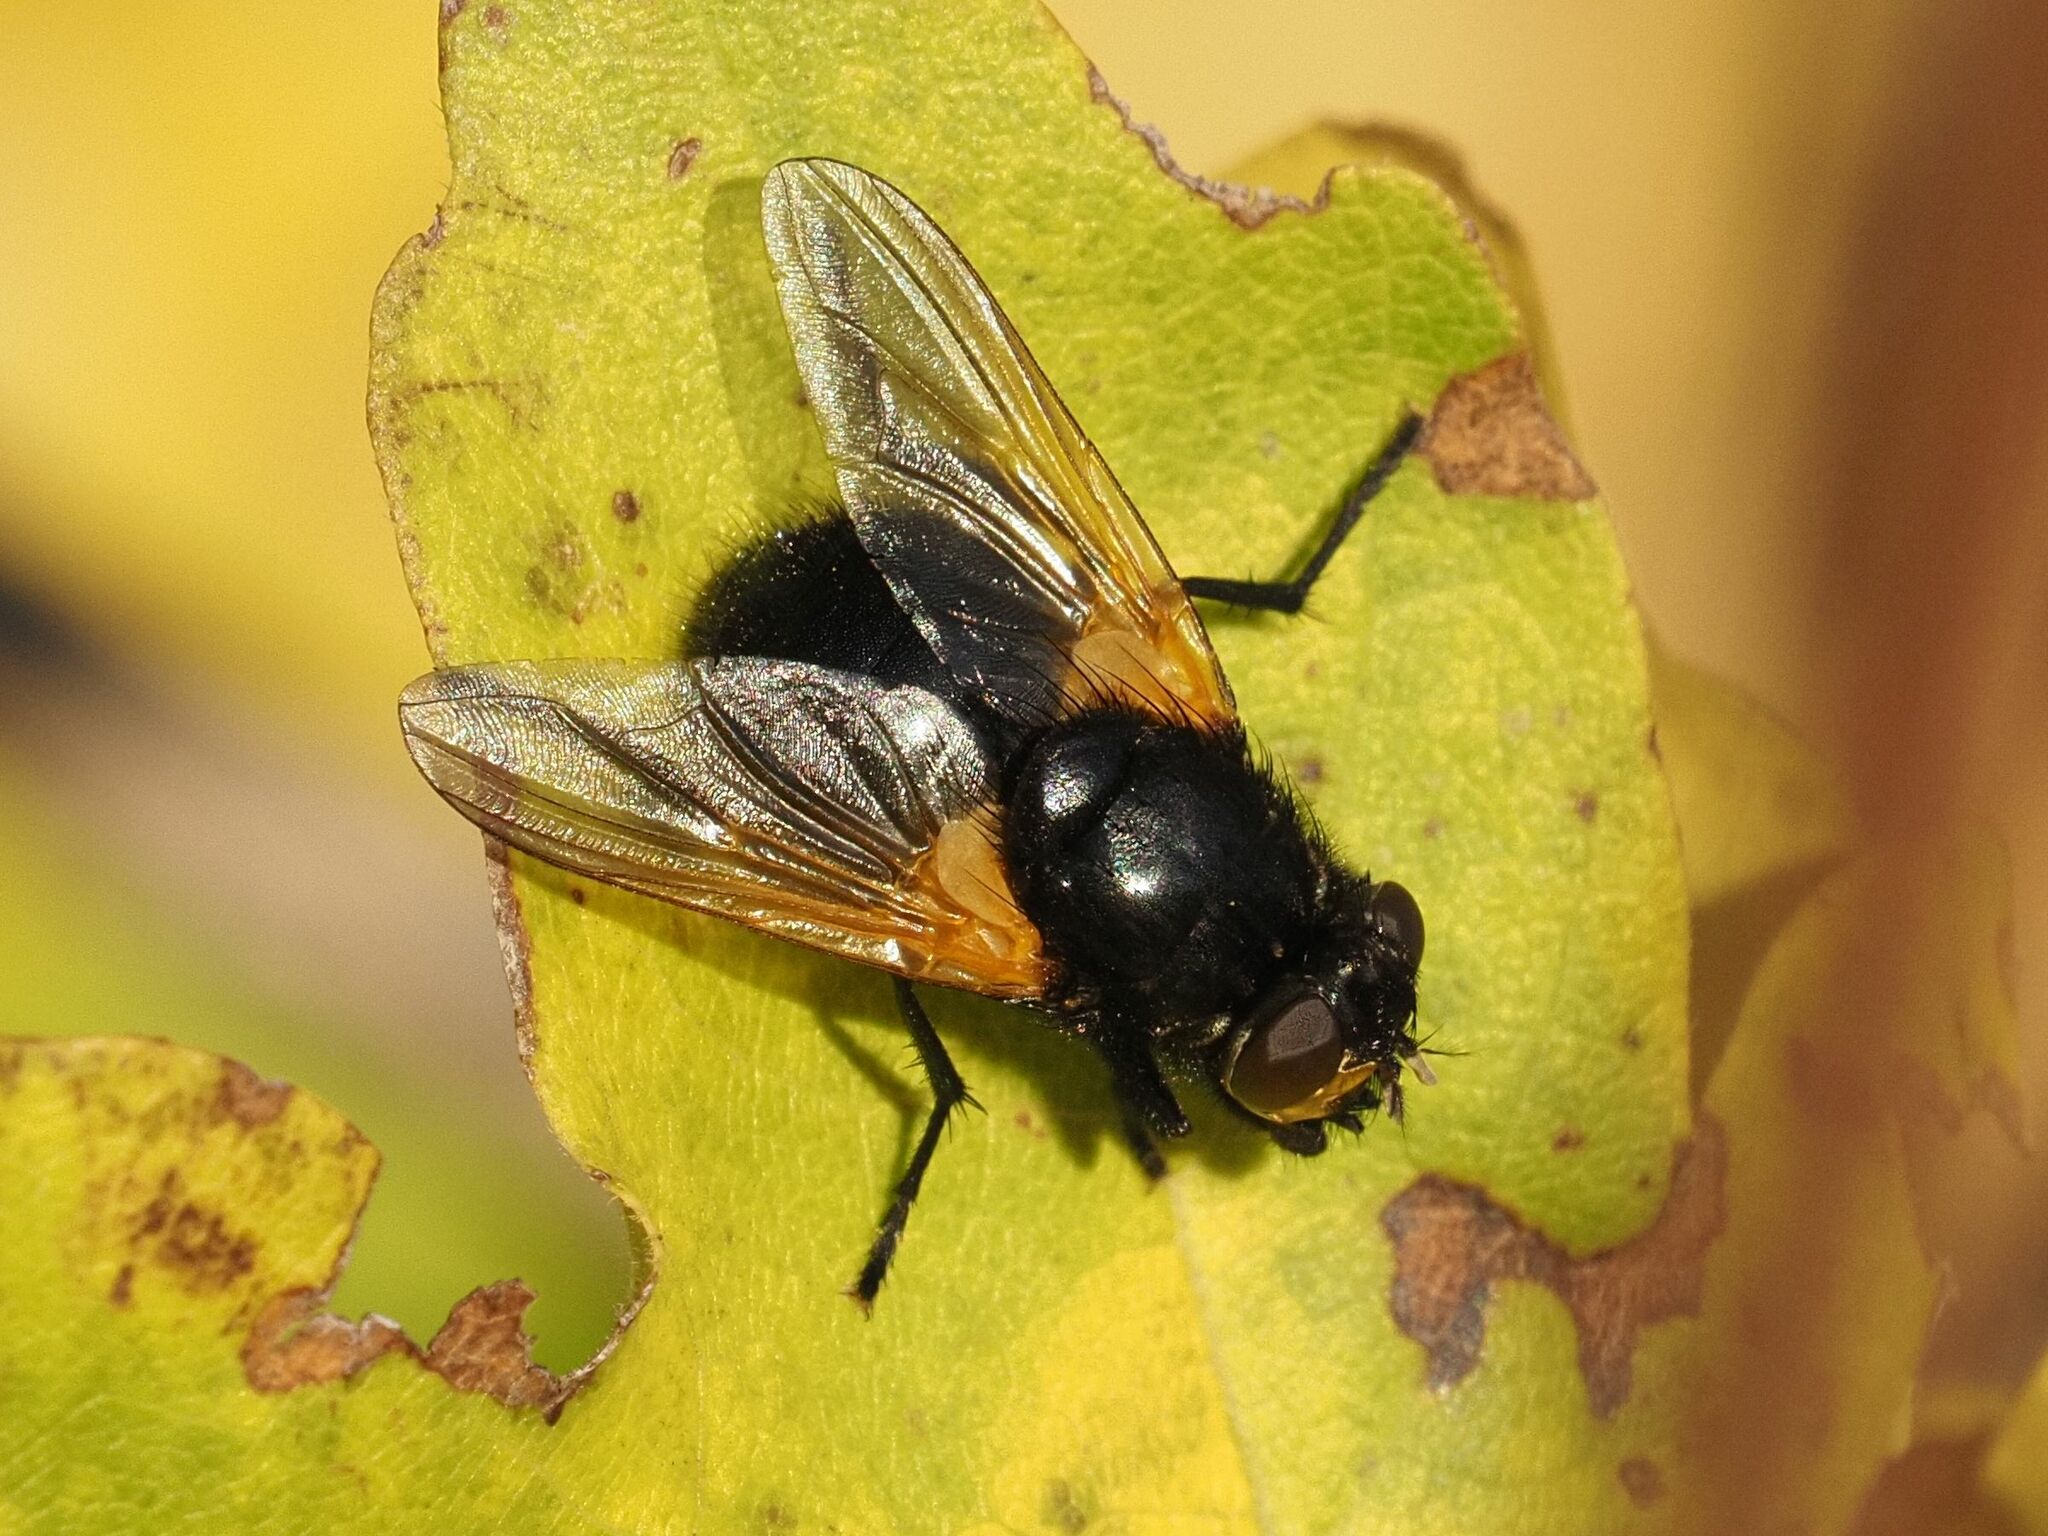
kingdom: Animalia
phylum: Arthropoda
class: Insecta
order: Diptera
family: Muscidae
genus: Mesembrina
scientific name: Mesembrina meridiana
